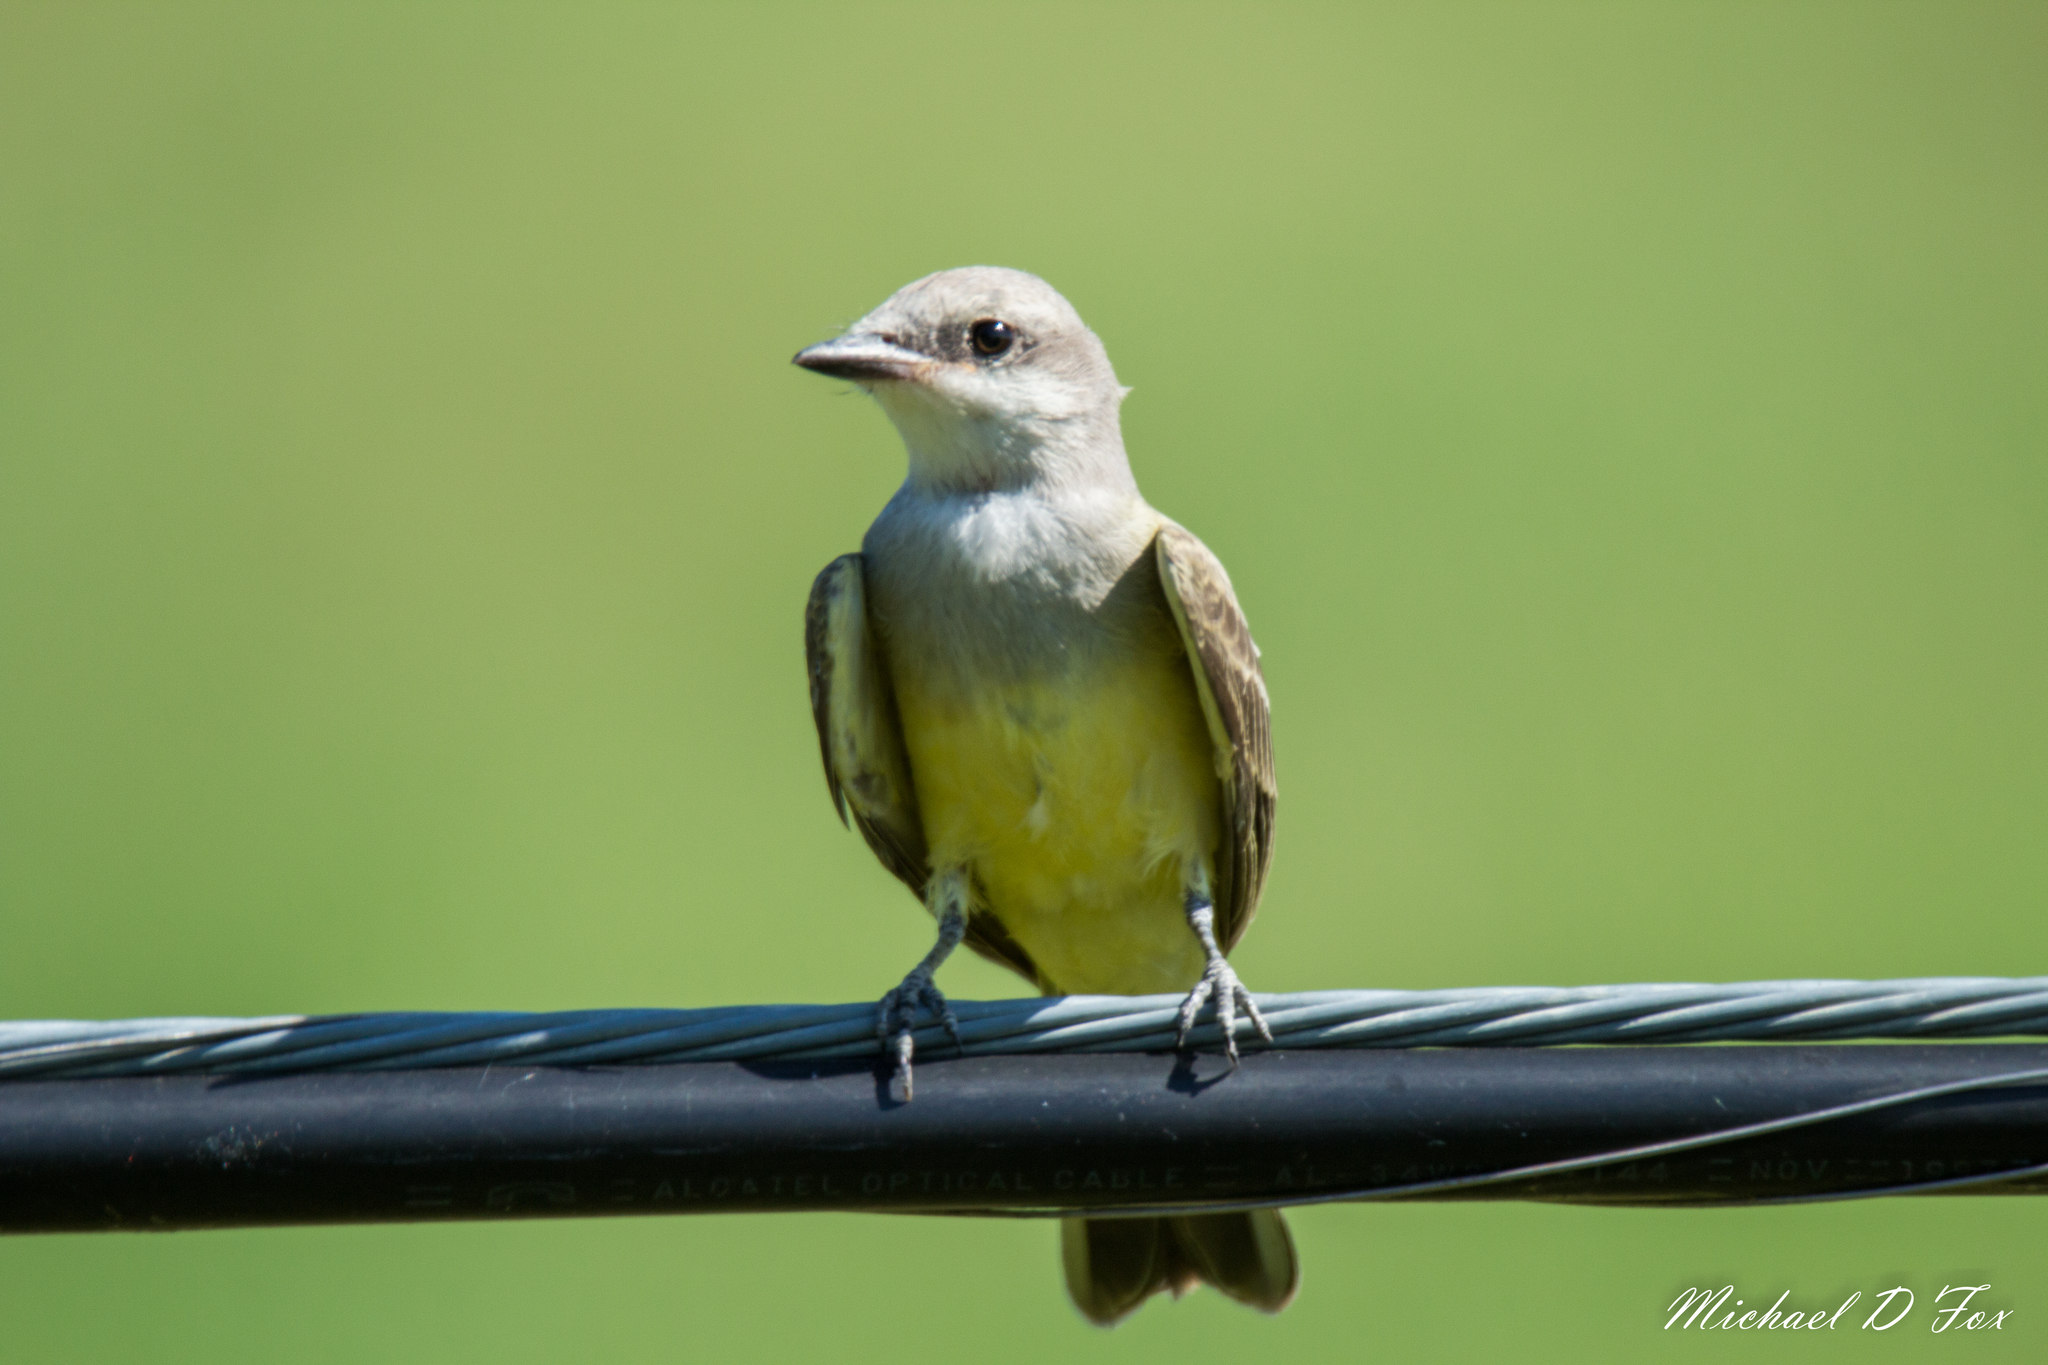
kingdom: Animalia
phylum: Chordata
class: Aves
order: Passeriformes
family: Tyrannidae
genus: Tyrannus
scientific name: Tyrannus verticalis
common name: Western kingbird
